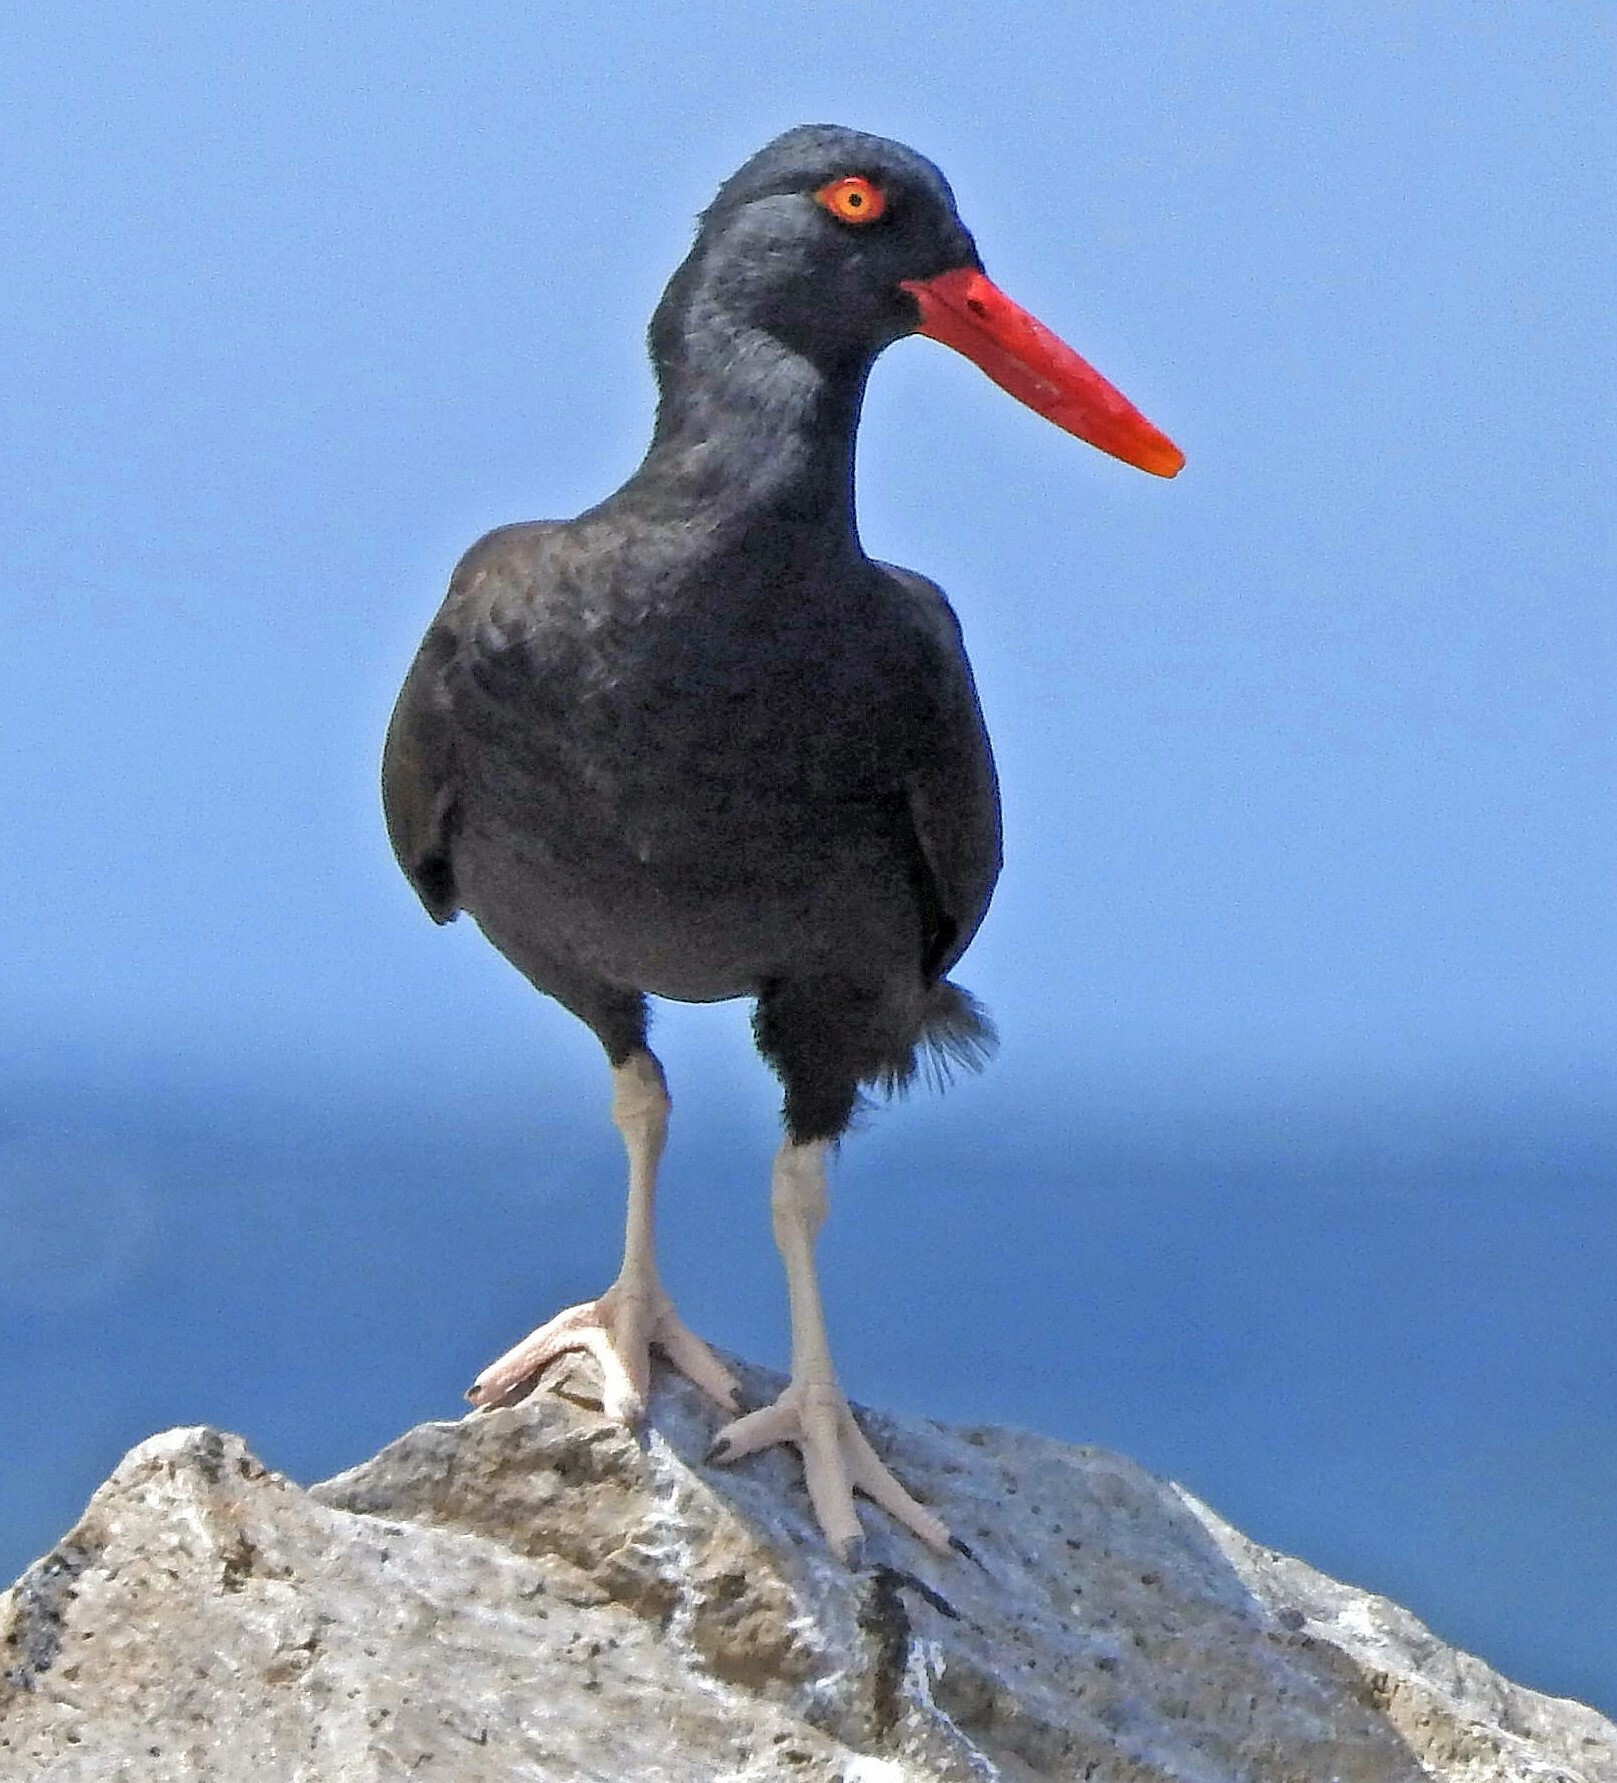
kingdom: Animalia
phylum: Chordata
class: Aves
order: Charadriiformes
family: Haematopodidae
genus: Haematopus
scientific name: Haematopus ater
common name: Blackish oystercatcher
